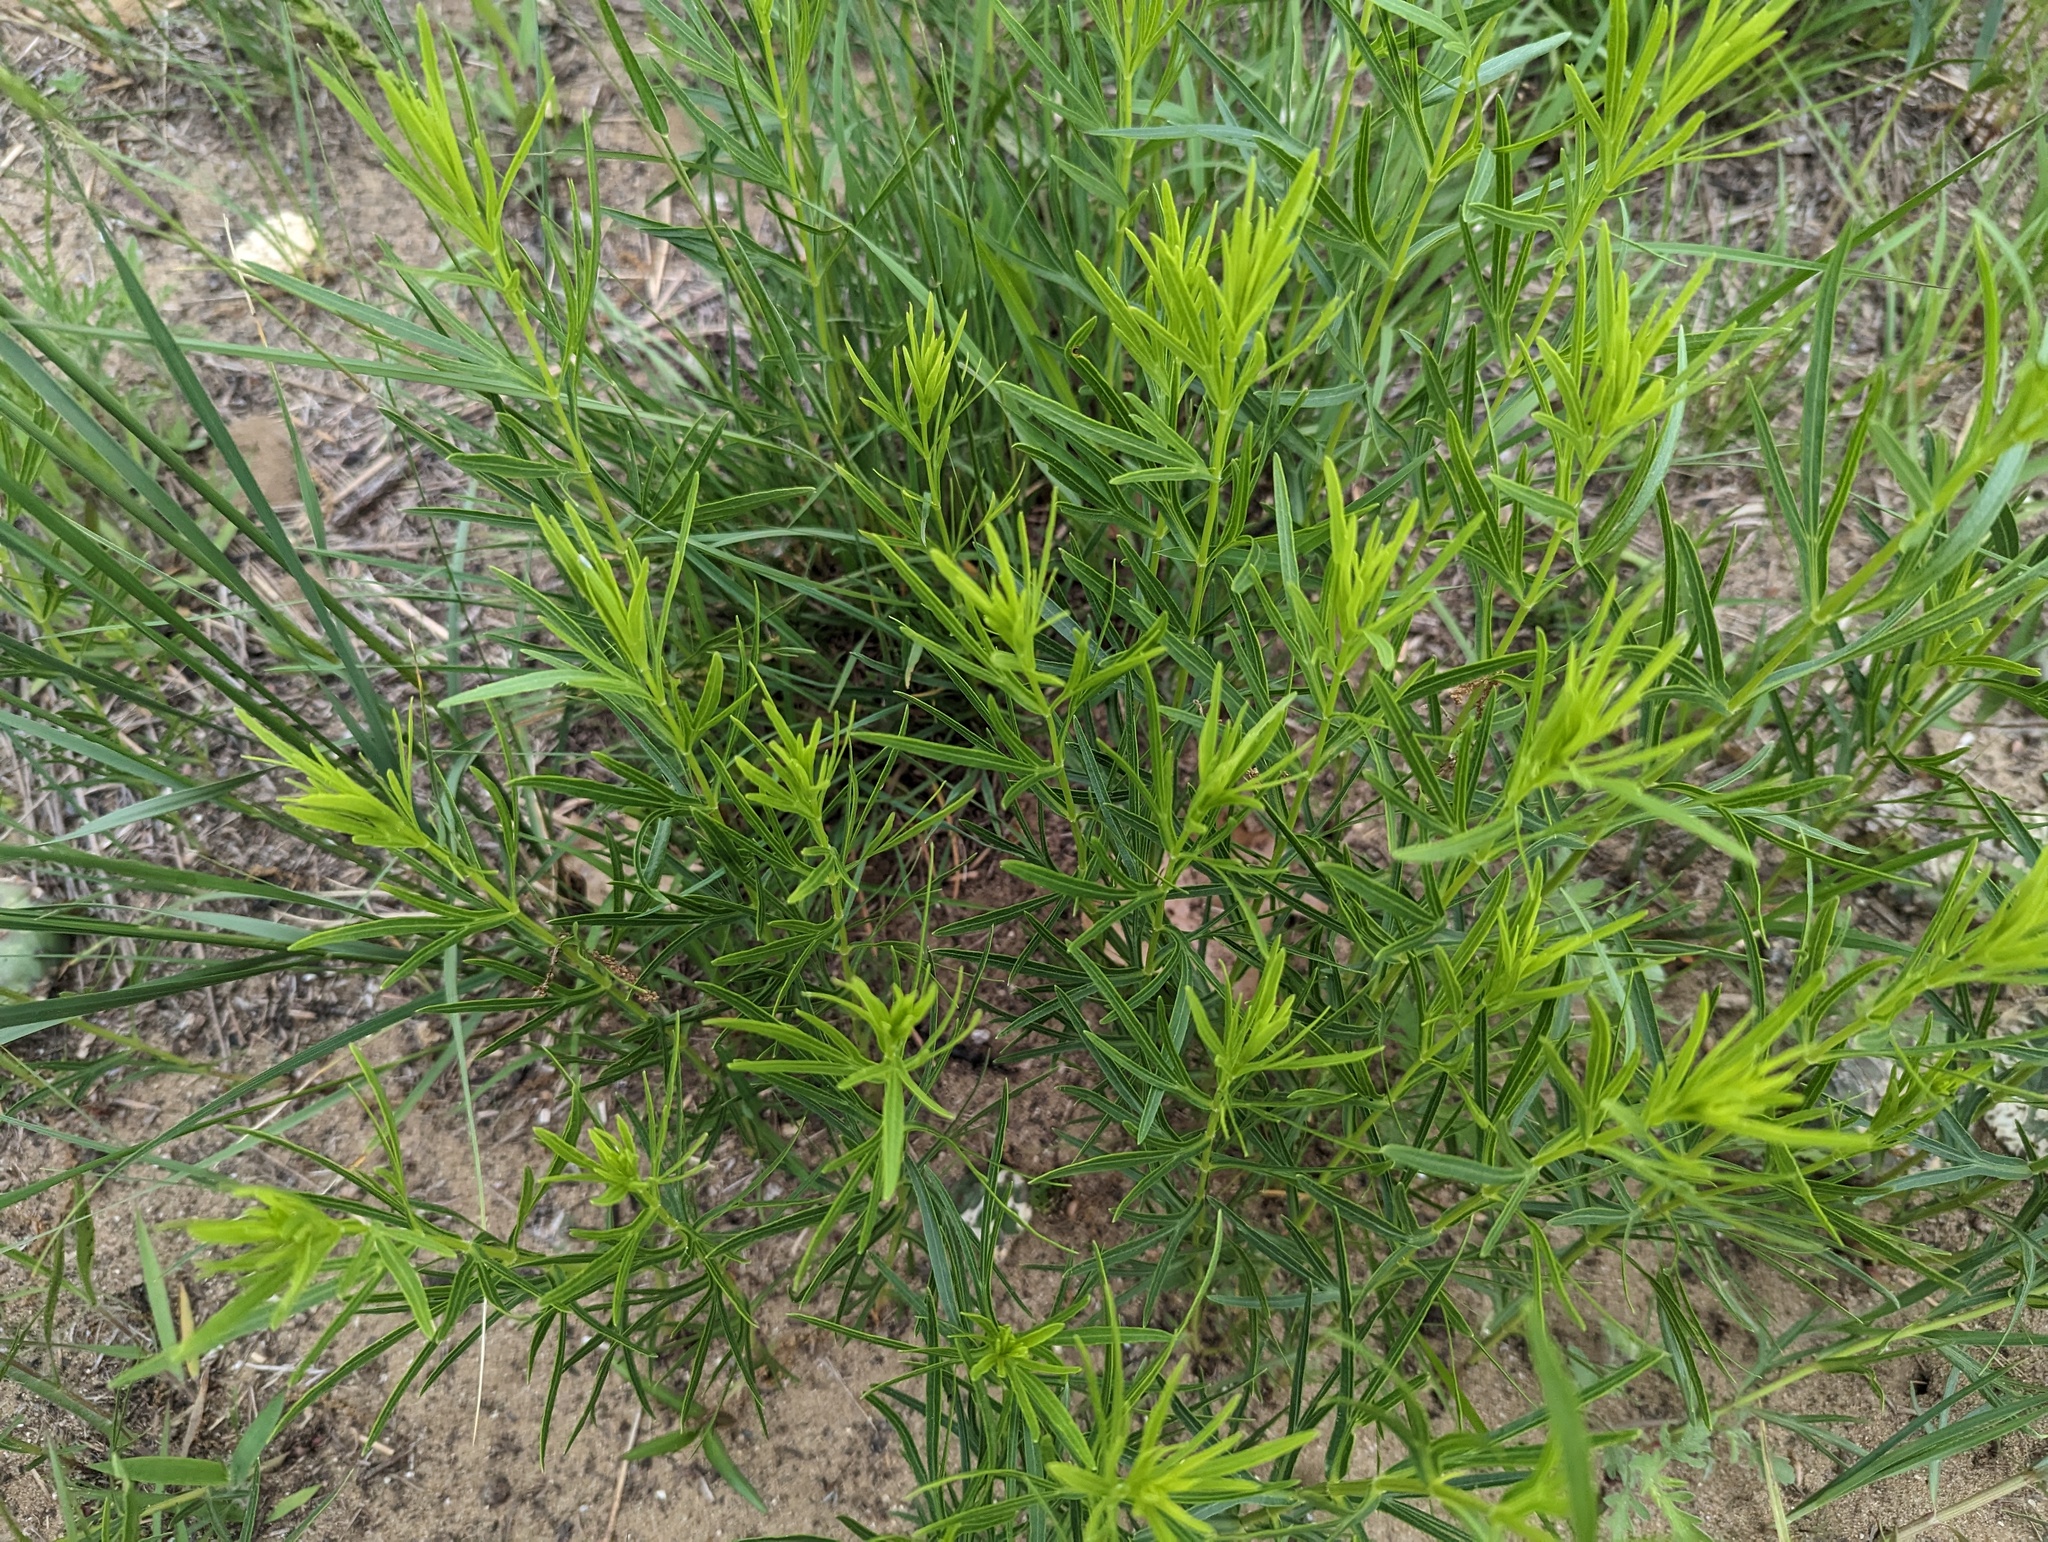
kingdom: Plantae
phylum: Tracheophyta
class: Magnoliopsida
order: Asterales
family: Asteraceae
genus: Coreopsis
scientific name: Coreopsis palmata
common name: Prairie coreopsis
